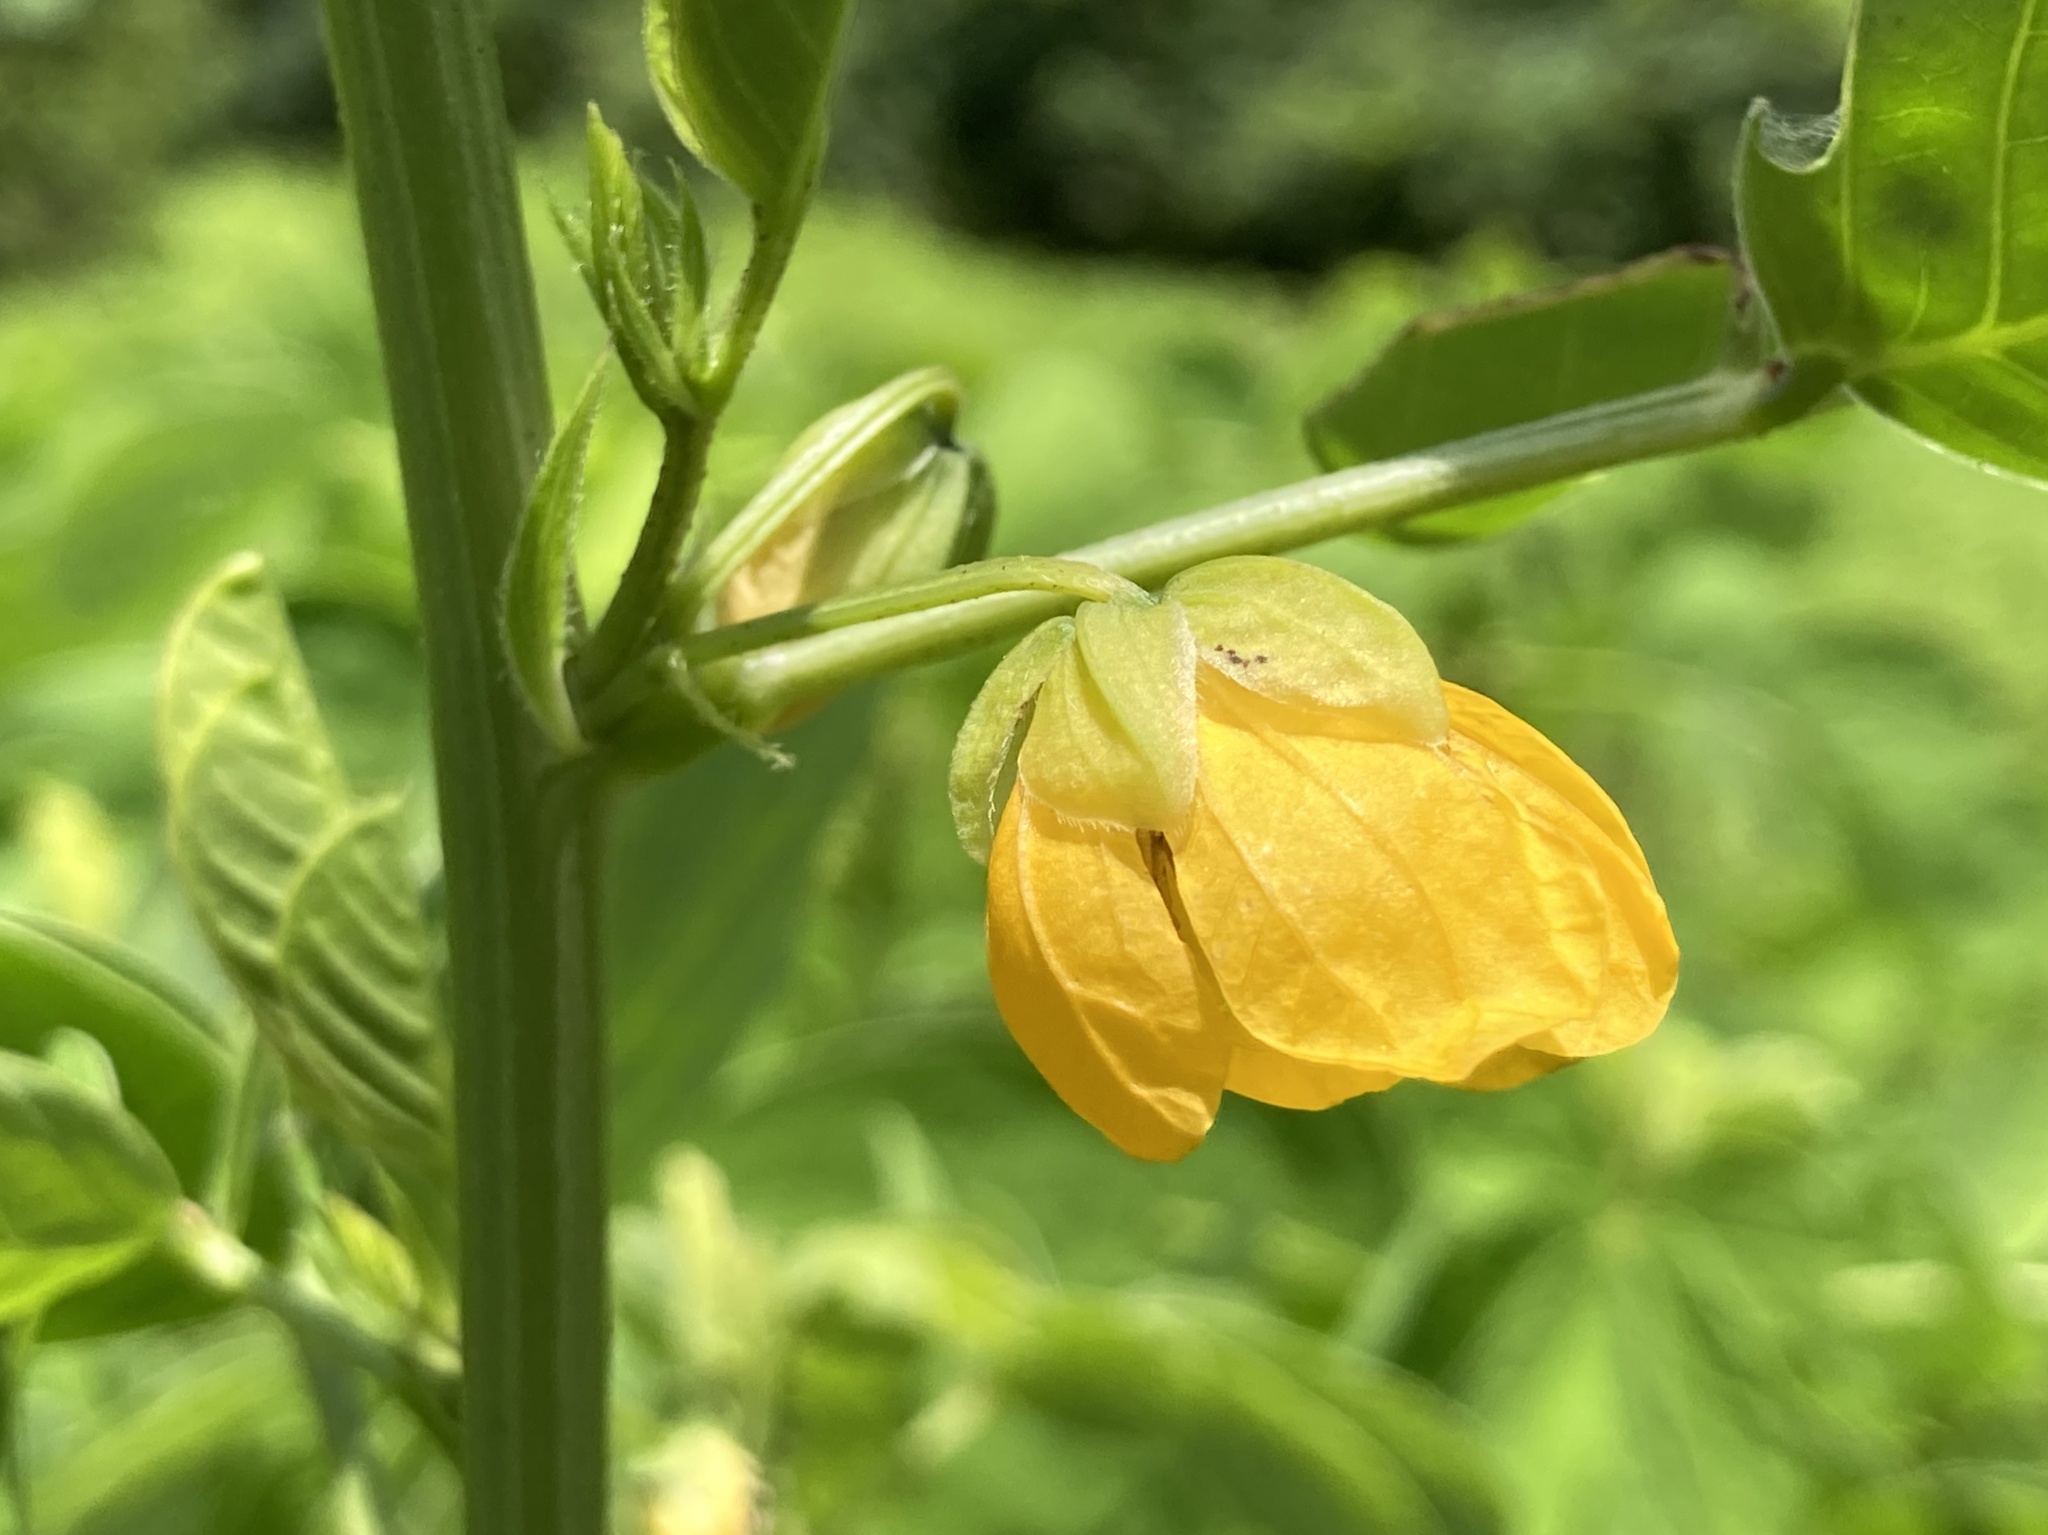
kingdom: Plantae
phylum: Tracheophyta
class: Magnoliopsida
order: Fabales
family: Fabaceae
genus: Senna
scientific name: Senna obtusifolia
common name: Java-bean
